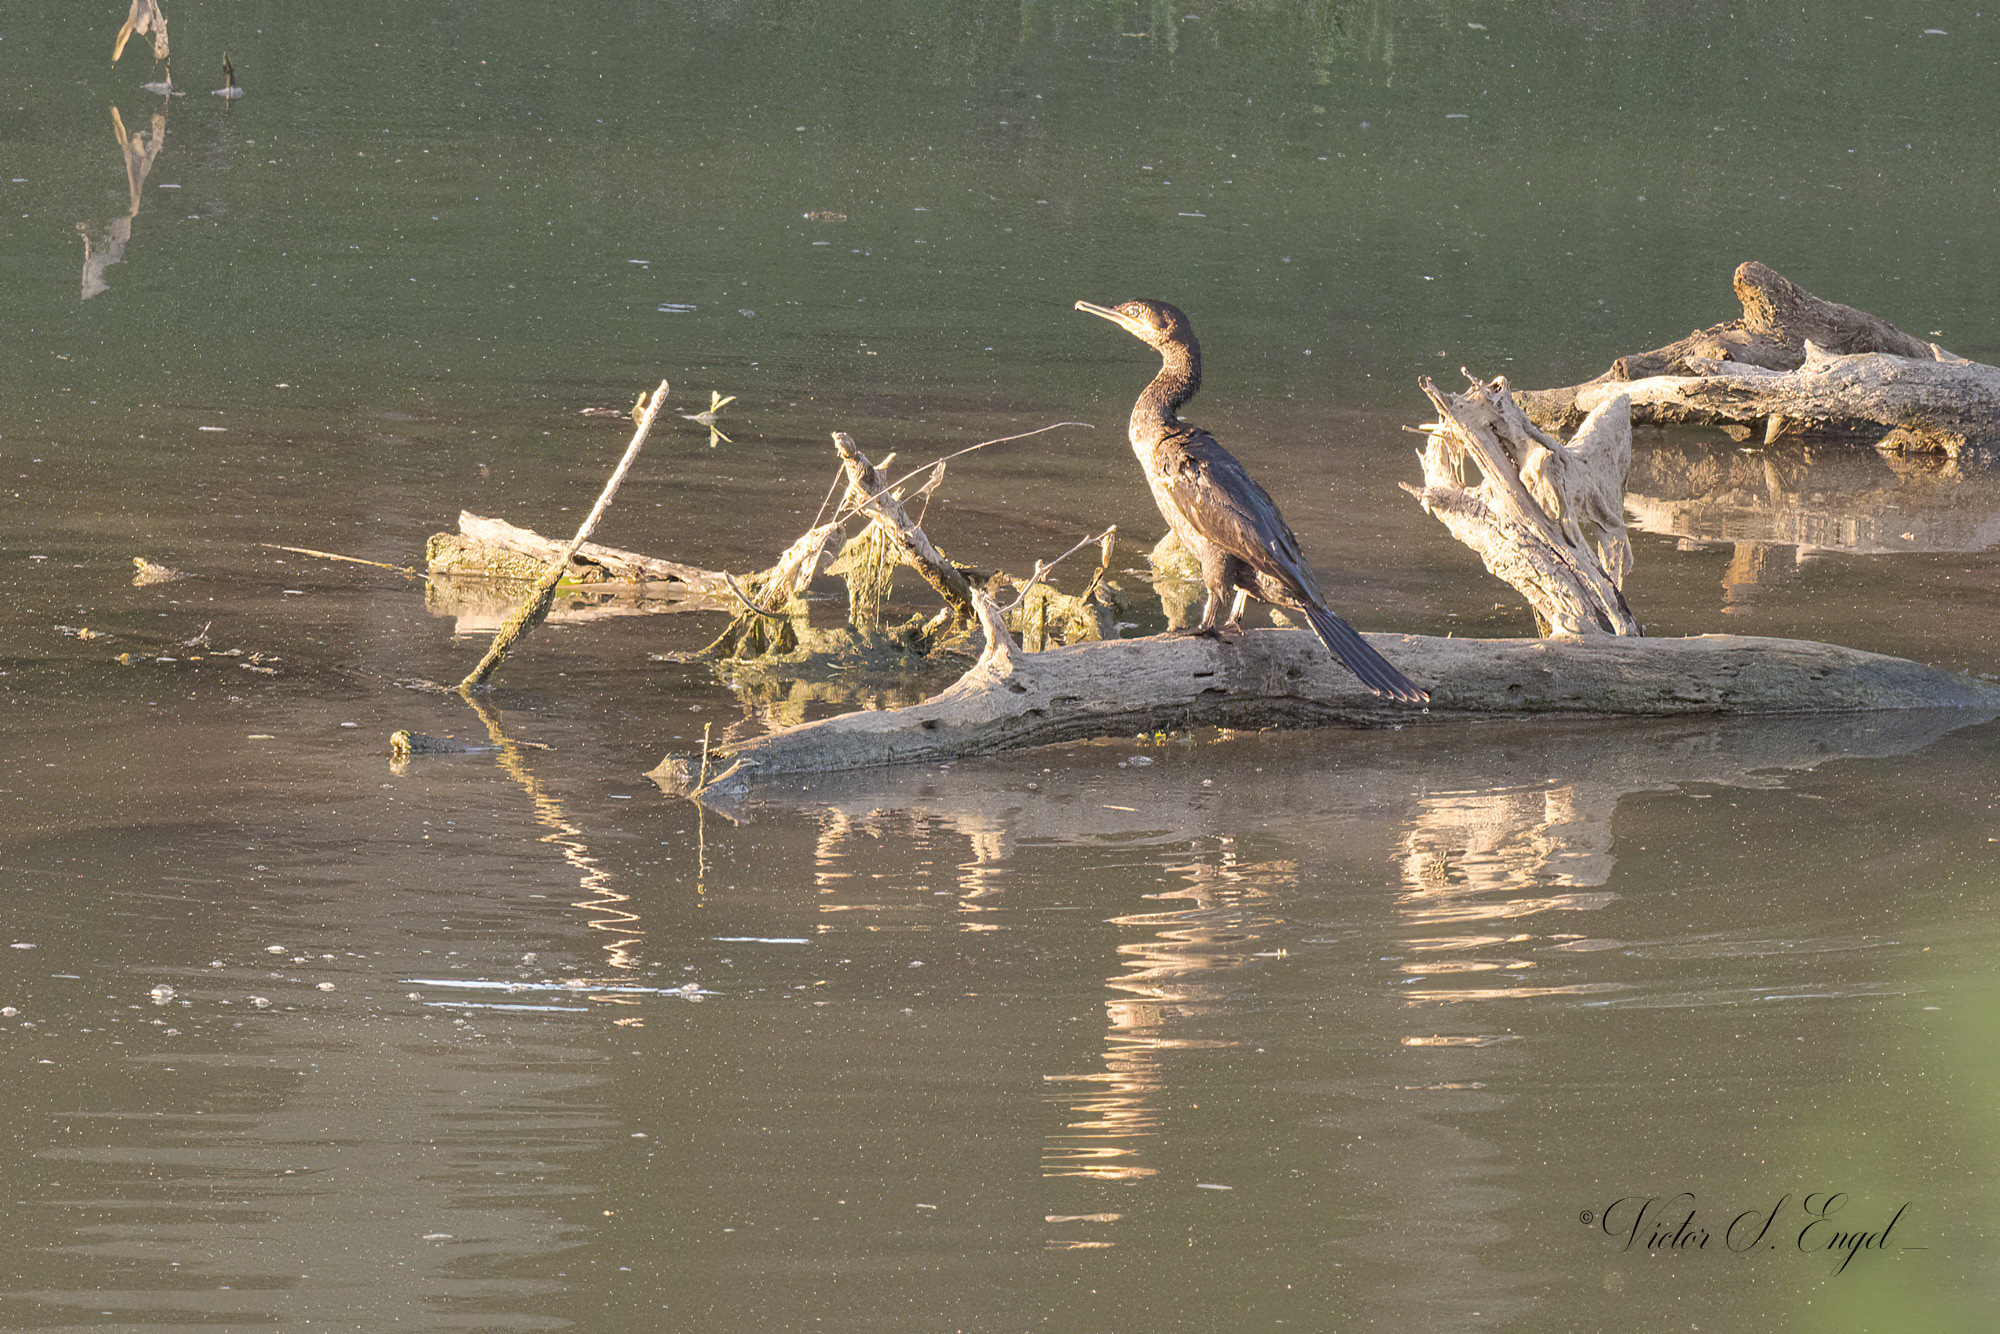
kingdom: Animalia
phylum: Chordata
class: Aves
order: Suliformes
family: Phalacrocoracidae
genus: Phalacrocorax
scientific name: Phalacrocorax brasilianus
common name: Neotropic cormorant
